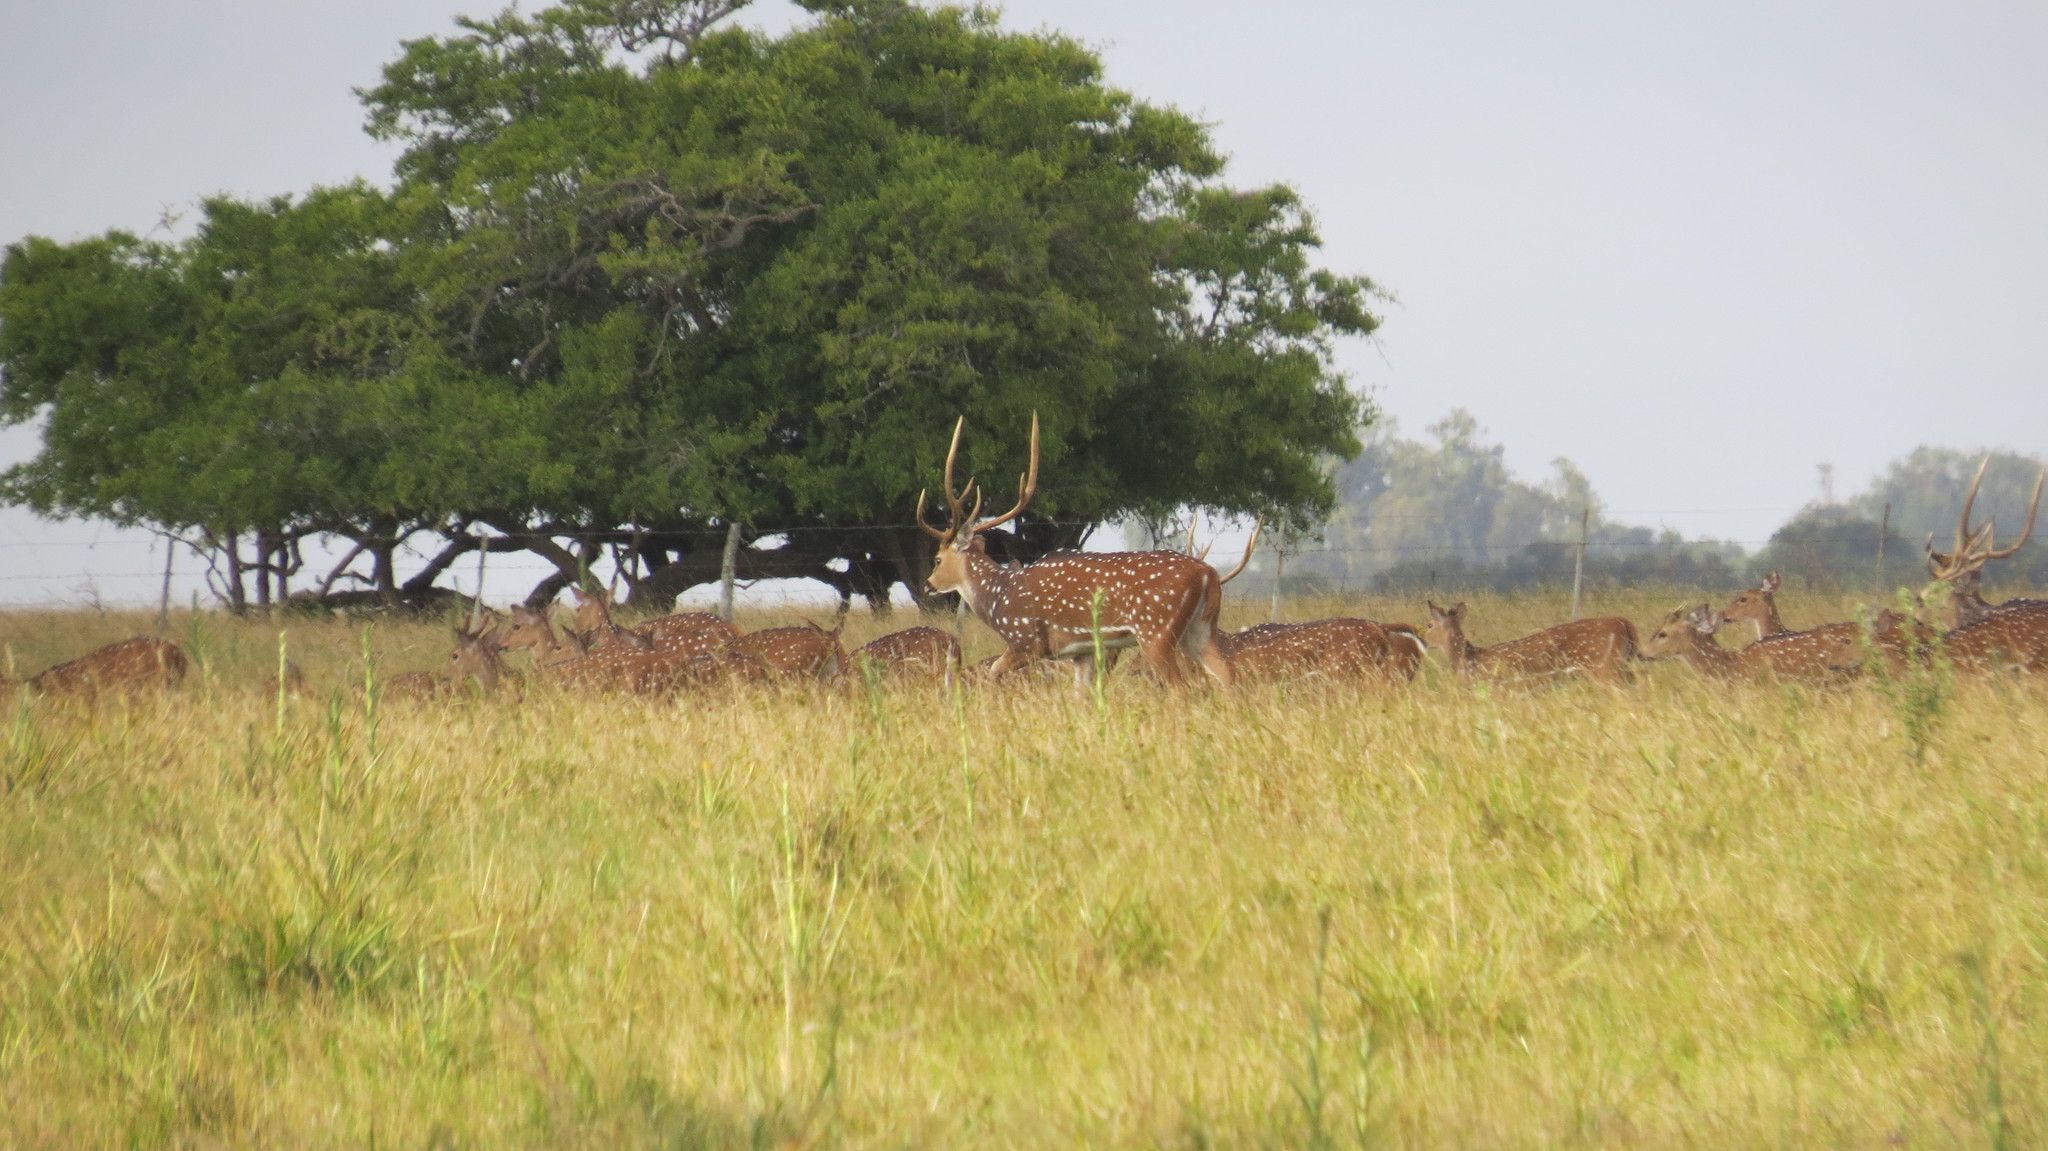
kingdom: Animalia
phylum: Chordata
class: Mammalia
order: Artiodactyla
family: Cervidae
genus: Axis
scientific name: Axis axis
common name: Chital
